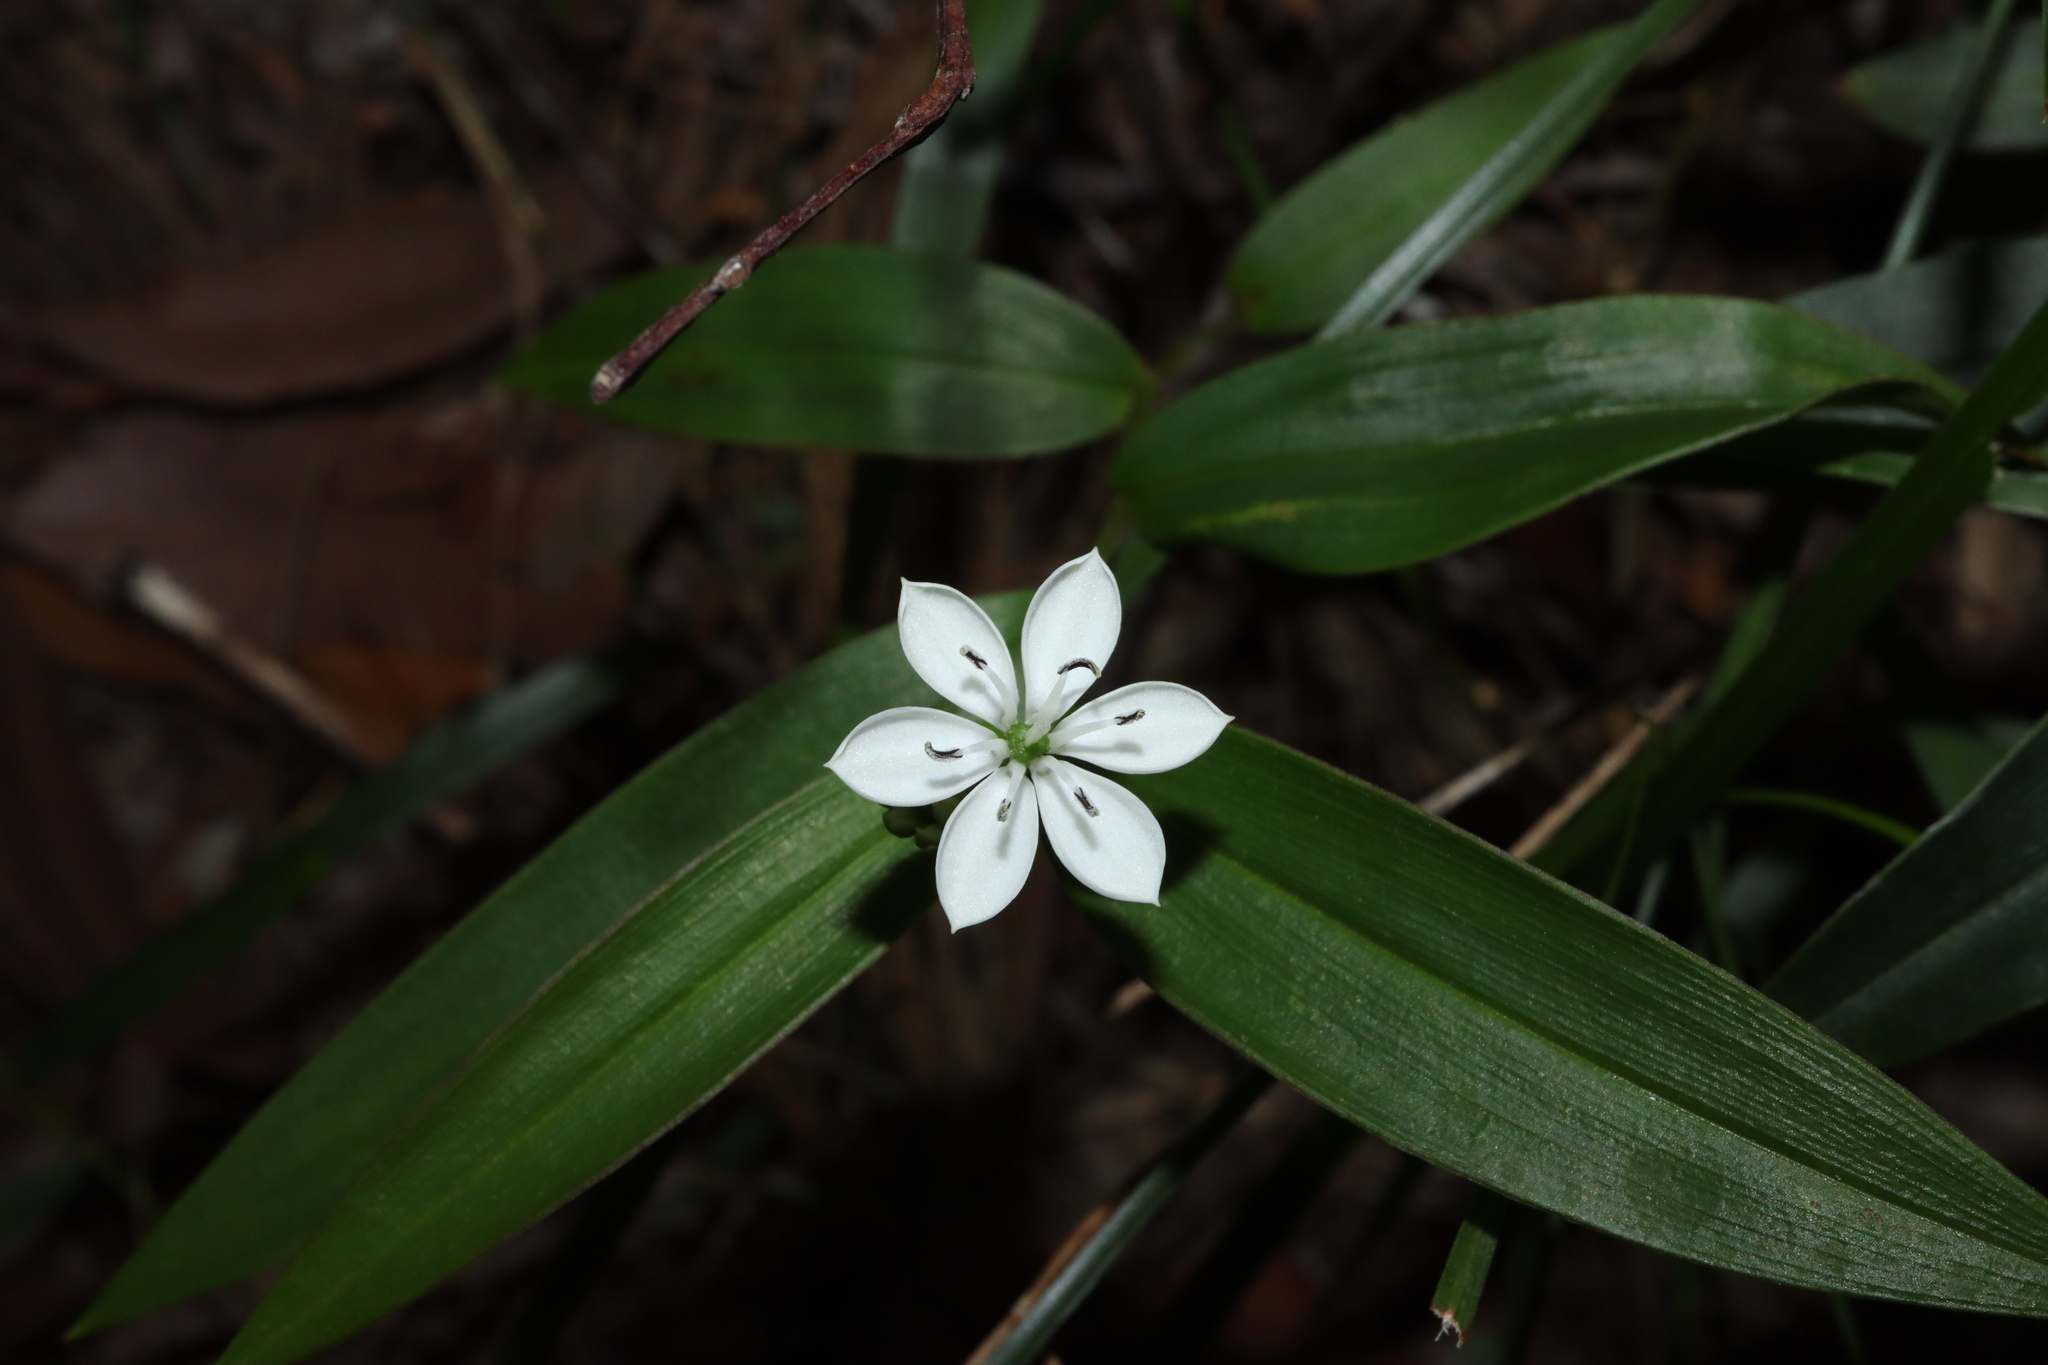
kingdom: Plantae
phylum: Tracheophyta
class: Liliopsida
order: Liliales
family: Colchicaceae
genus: Schelhammera
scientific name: Schelhammera multiflora
